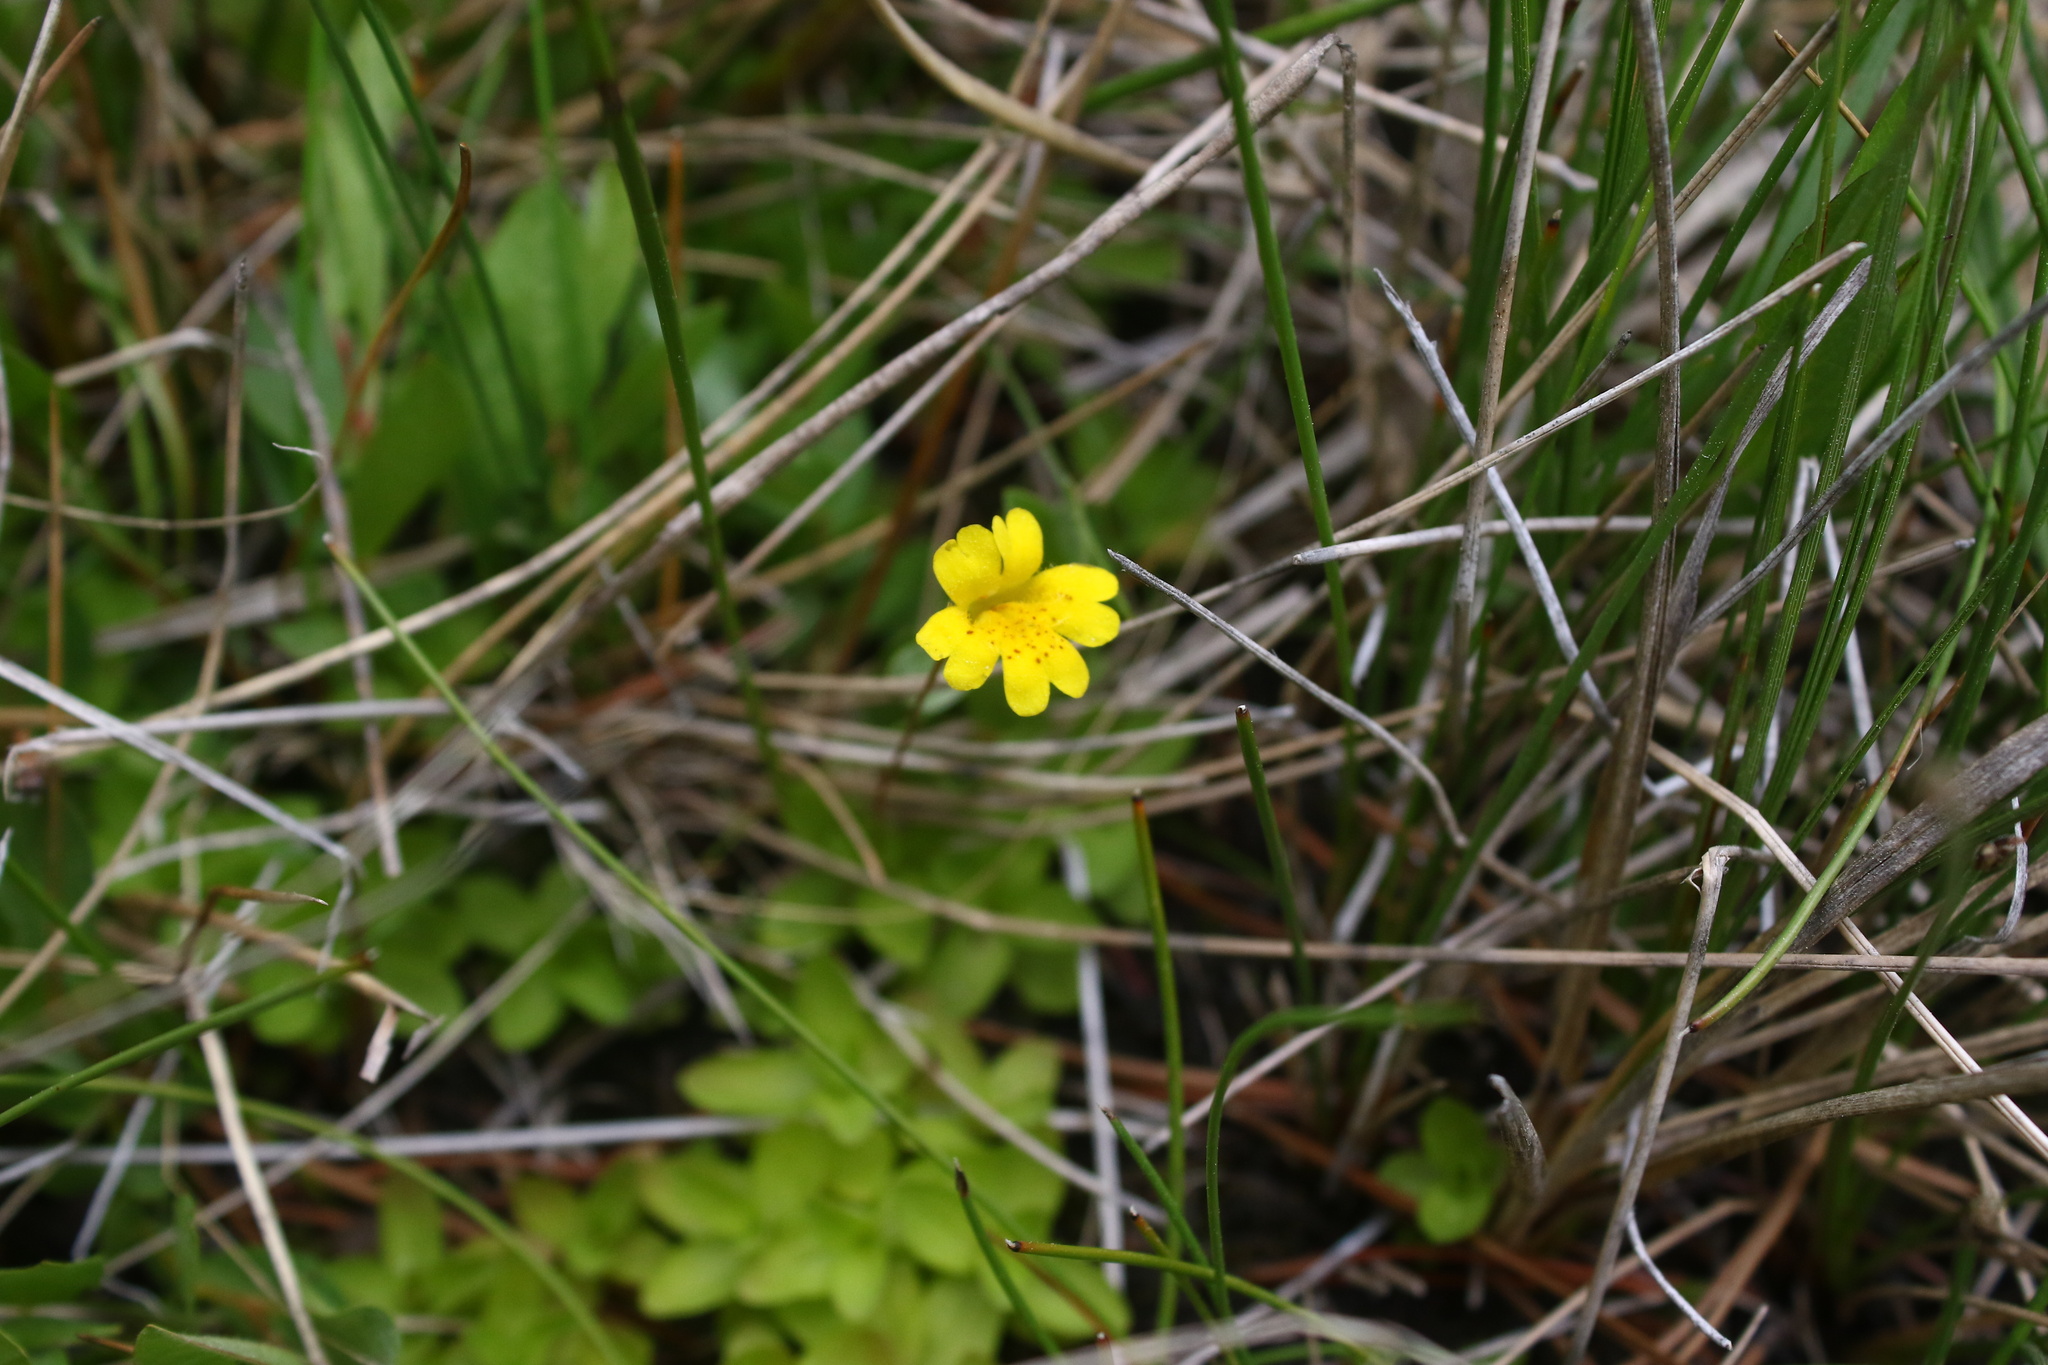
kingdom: Plantae
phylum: Tracheophyta
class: Magnoliopsida
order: Lamiales
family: Phrymaceae
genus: Erythranthe
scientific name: Erythranthe primuloides
